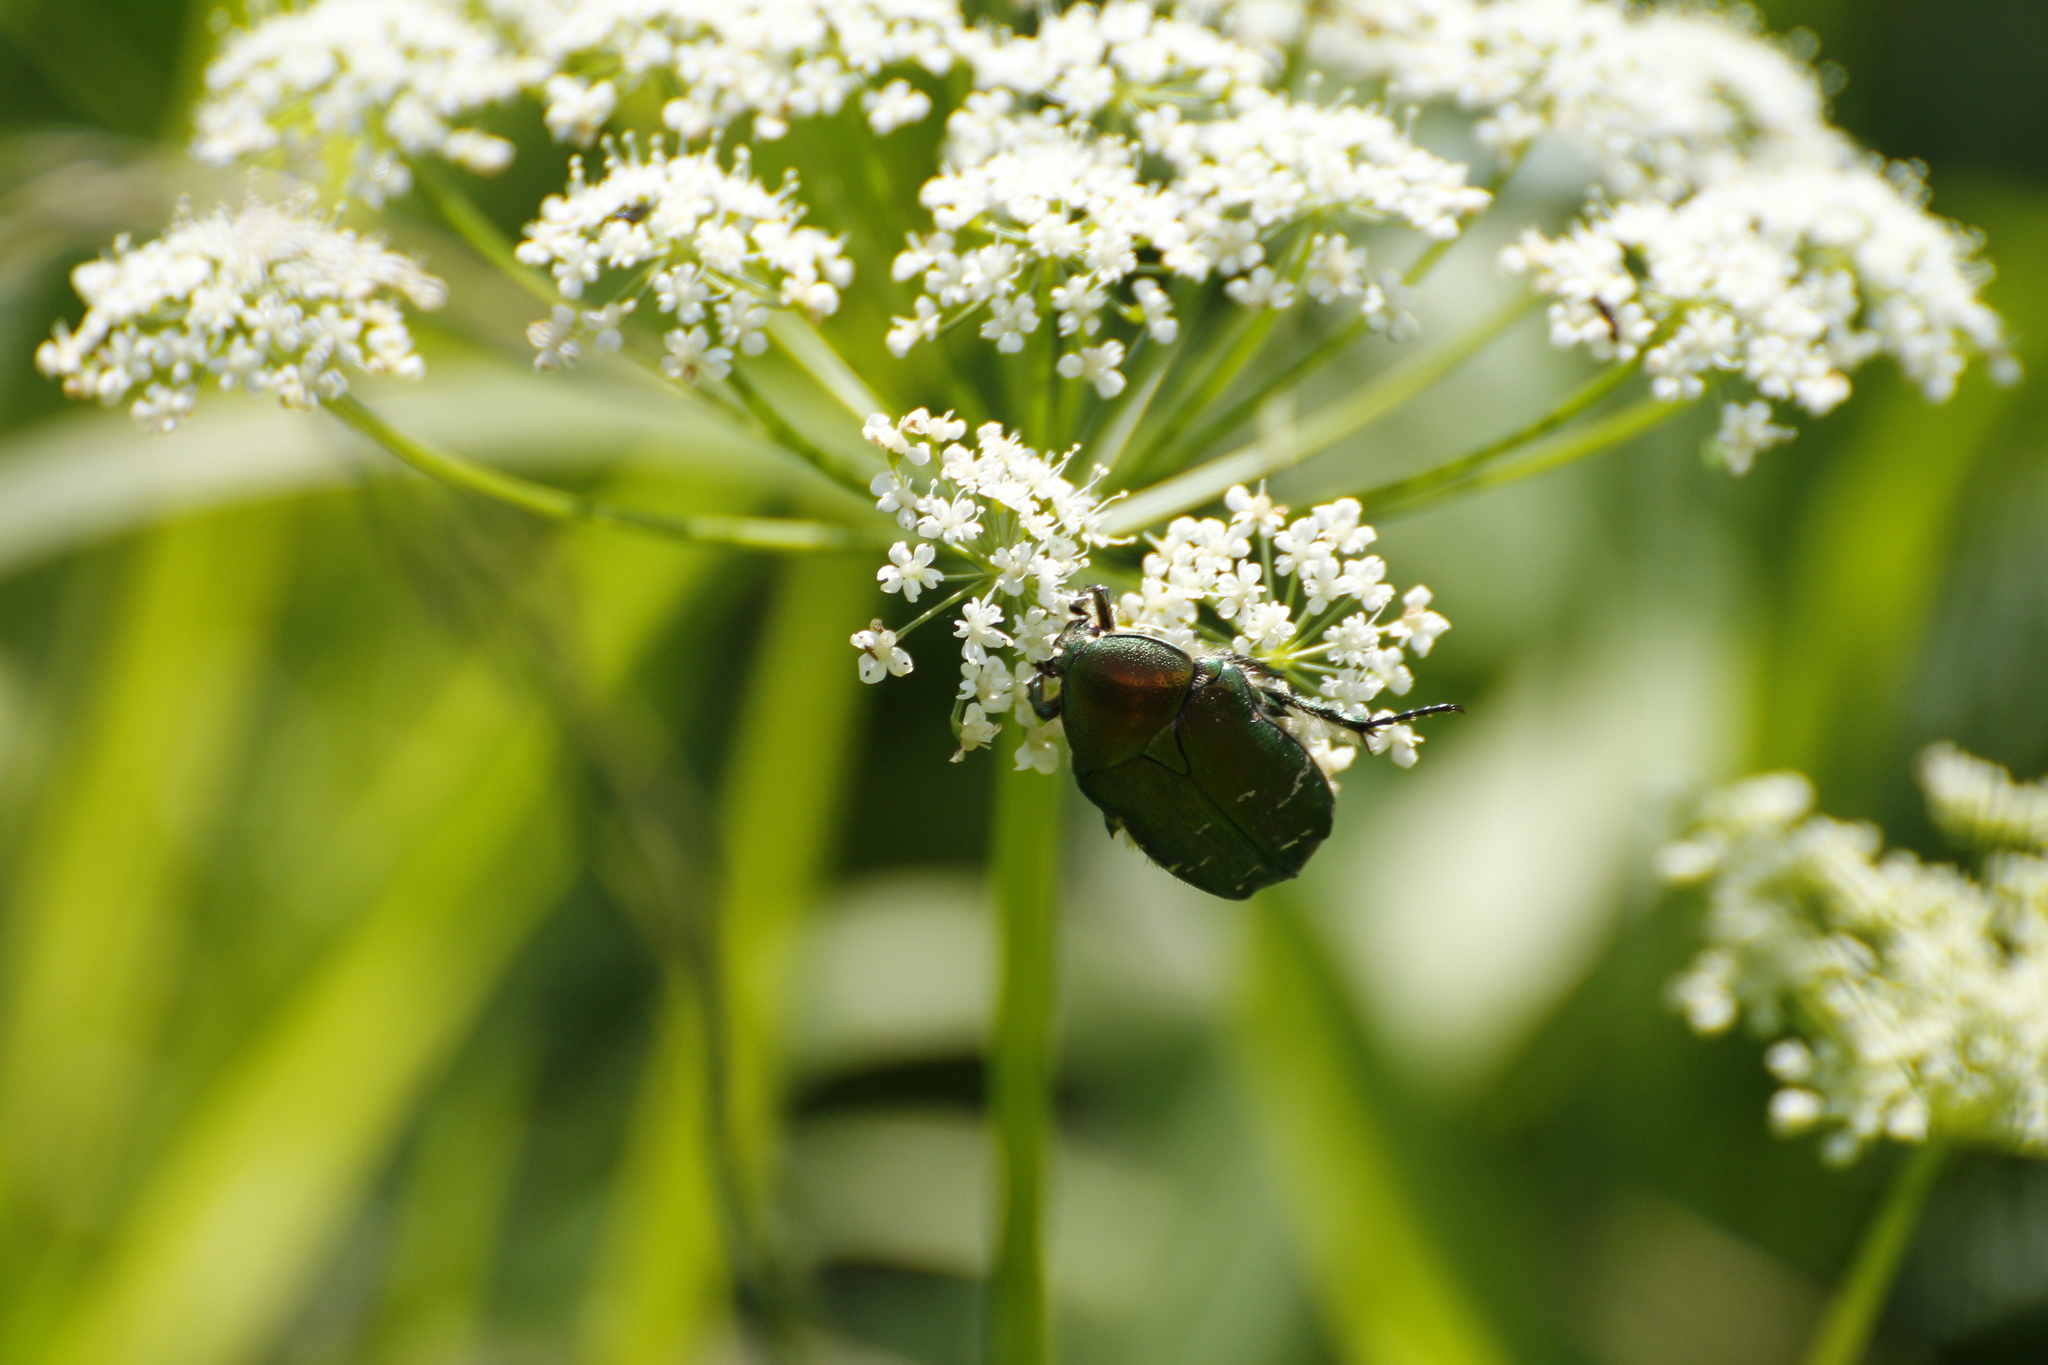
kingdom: Animalia
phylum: Arthropoda
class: Insecta
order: Coleoptera
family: Scarabaeidae
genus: Cetonia
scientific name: Cetonia aurata
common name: Rose chafer
